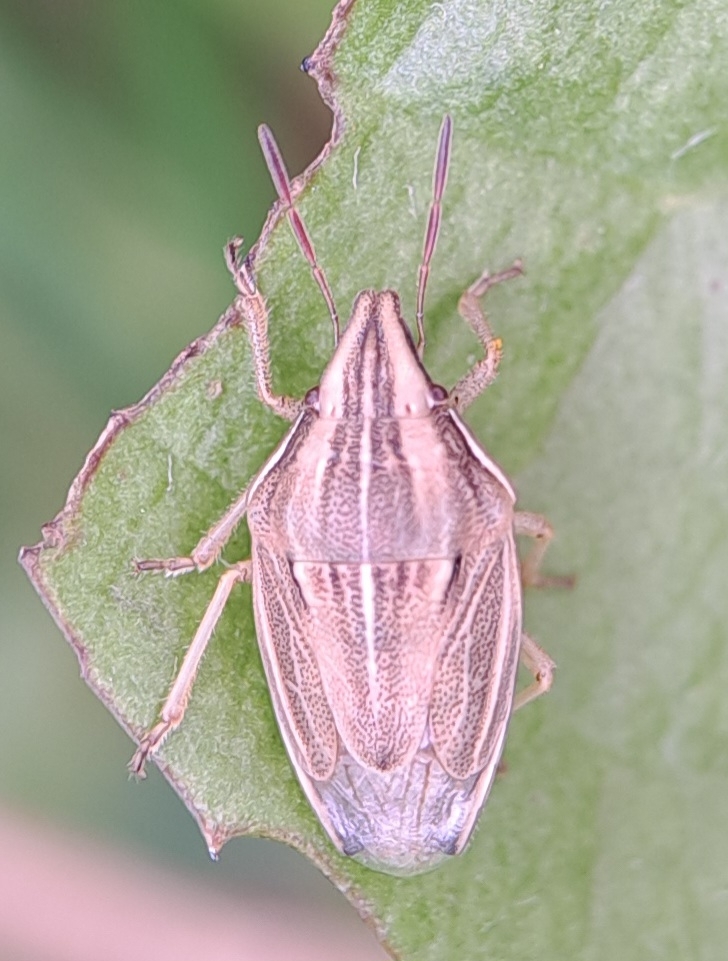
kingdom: Animalia
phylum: Arthropoda
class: Insecta
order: Hemiptera
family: Pentatomidae
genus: Aelia
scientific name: Aelia acuminata
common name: Bishop's mitre
